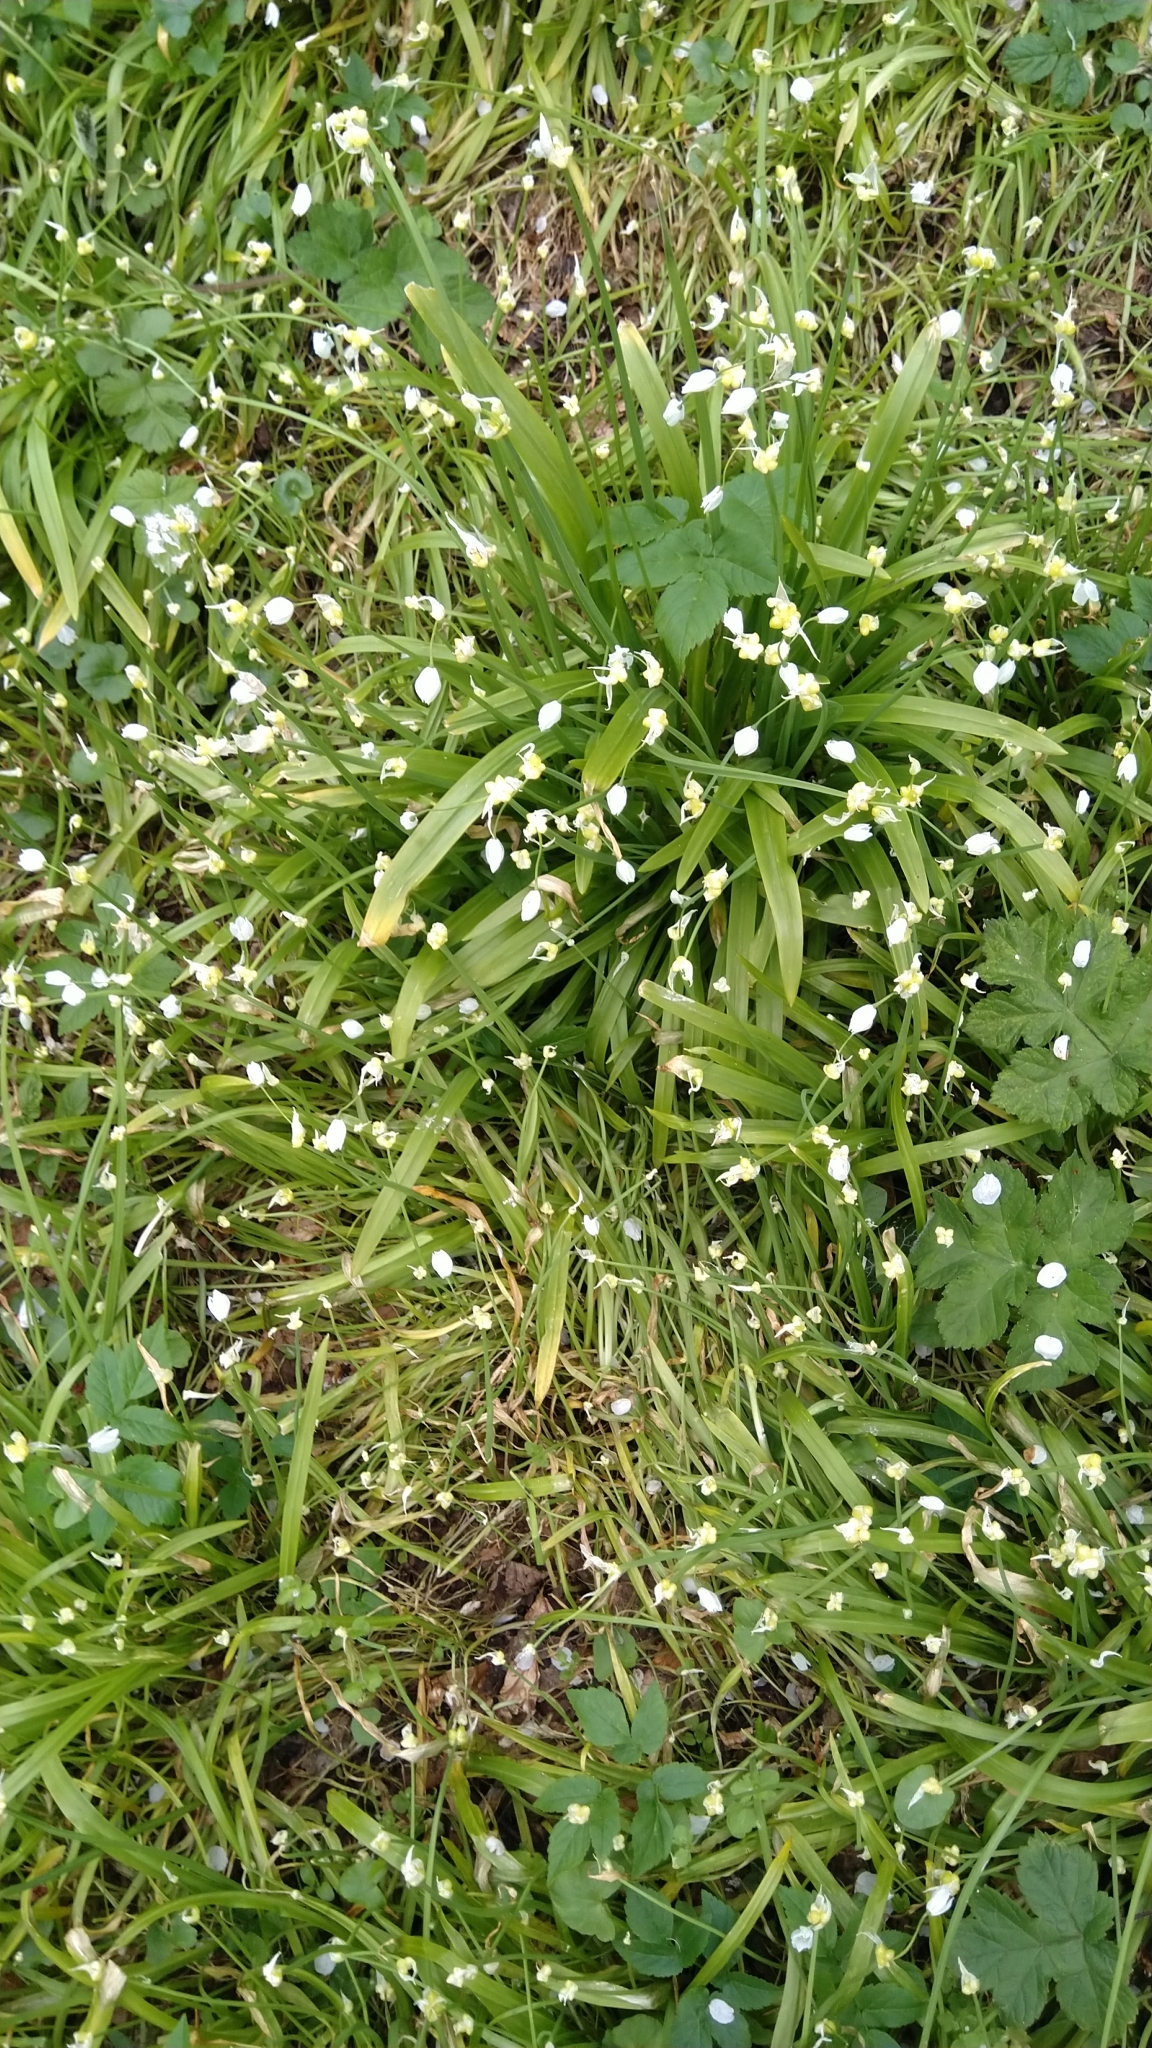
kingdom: Plantae
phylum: Tracheophyta
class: Liliopsida
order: Asparagales
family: Amaryllidaceae
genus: Allium
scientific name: Allium paradoxum
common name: Few-flowered garlic
